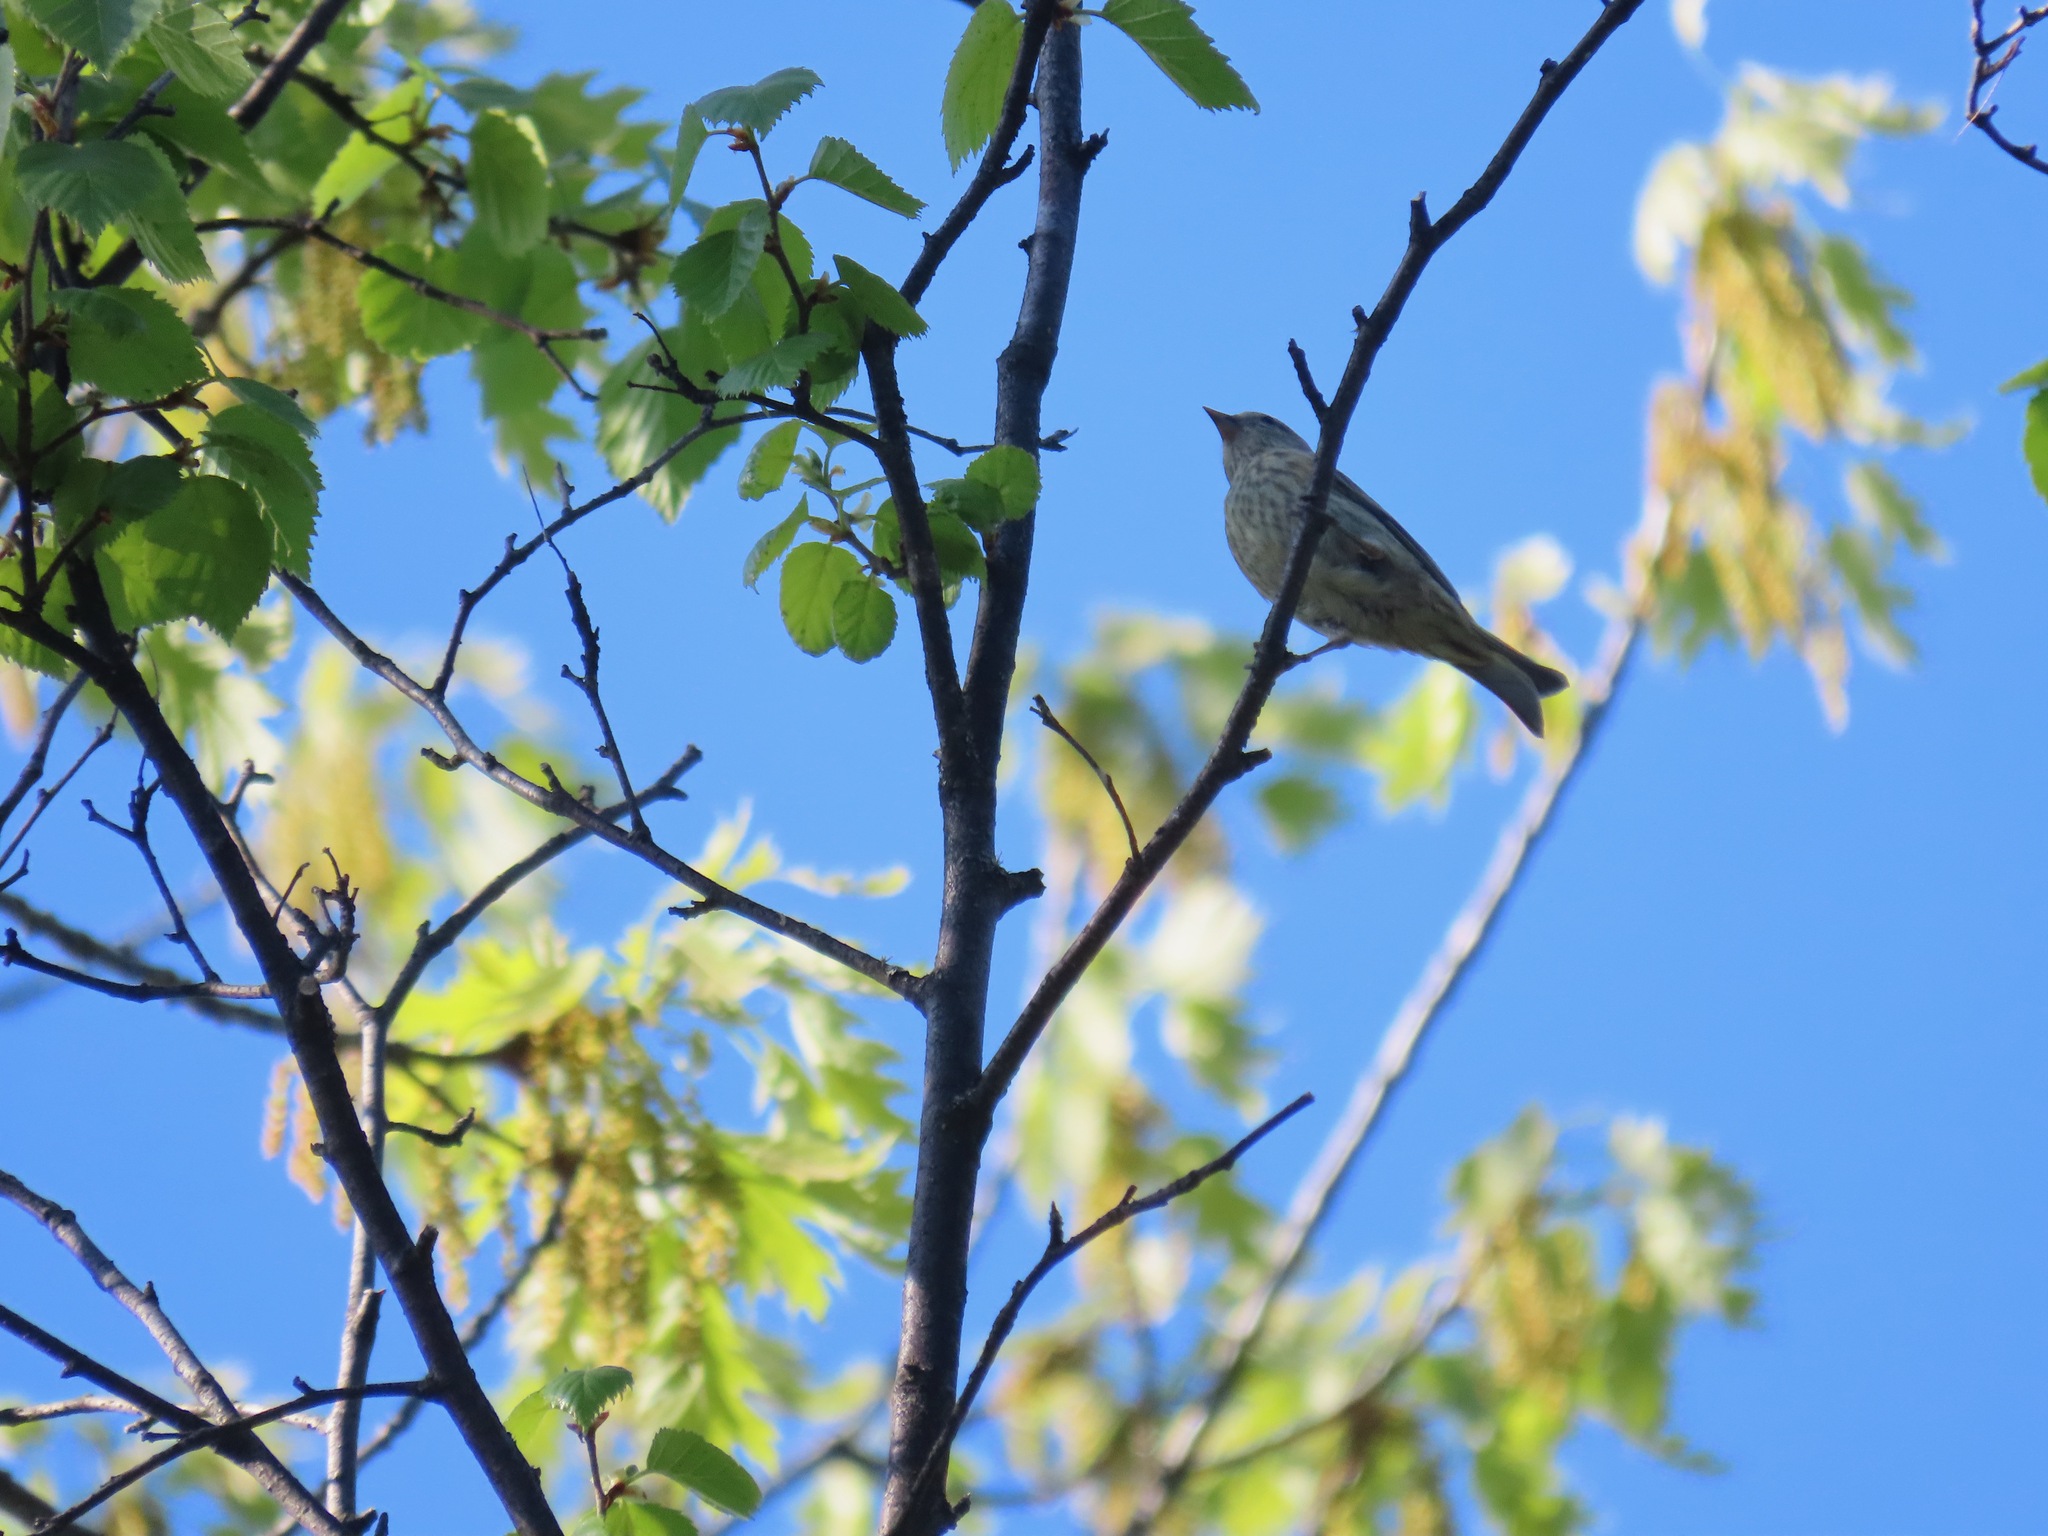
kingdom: Animalia
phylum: Chordata
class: Aves
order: Passeriformes
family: Fringillidae
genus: Spinus
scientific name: Spinus pinus
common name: Pine siskin
